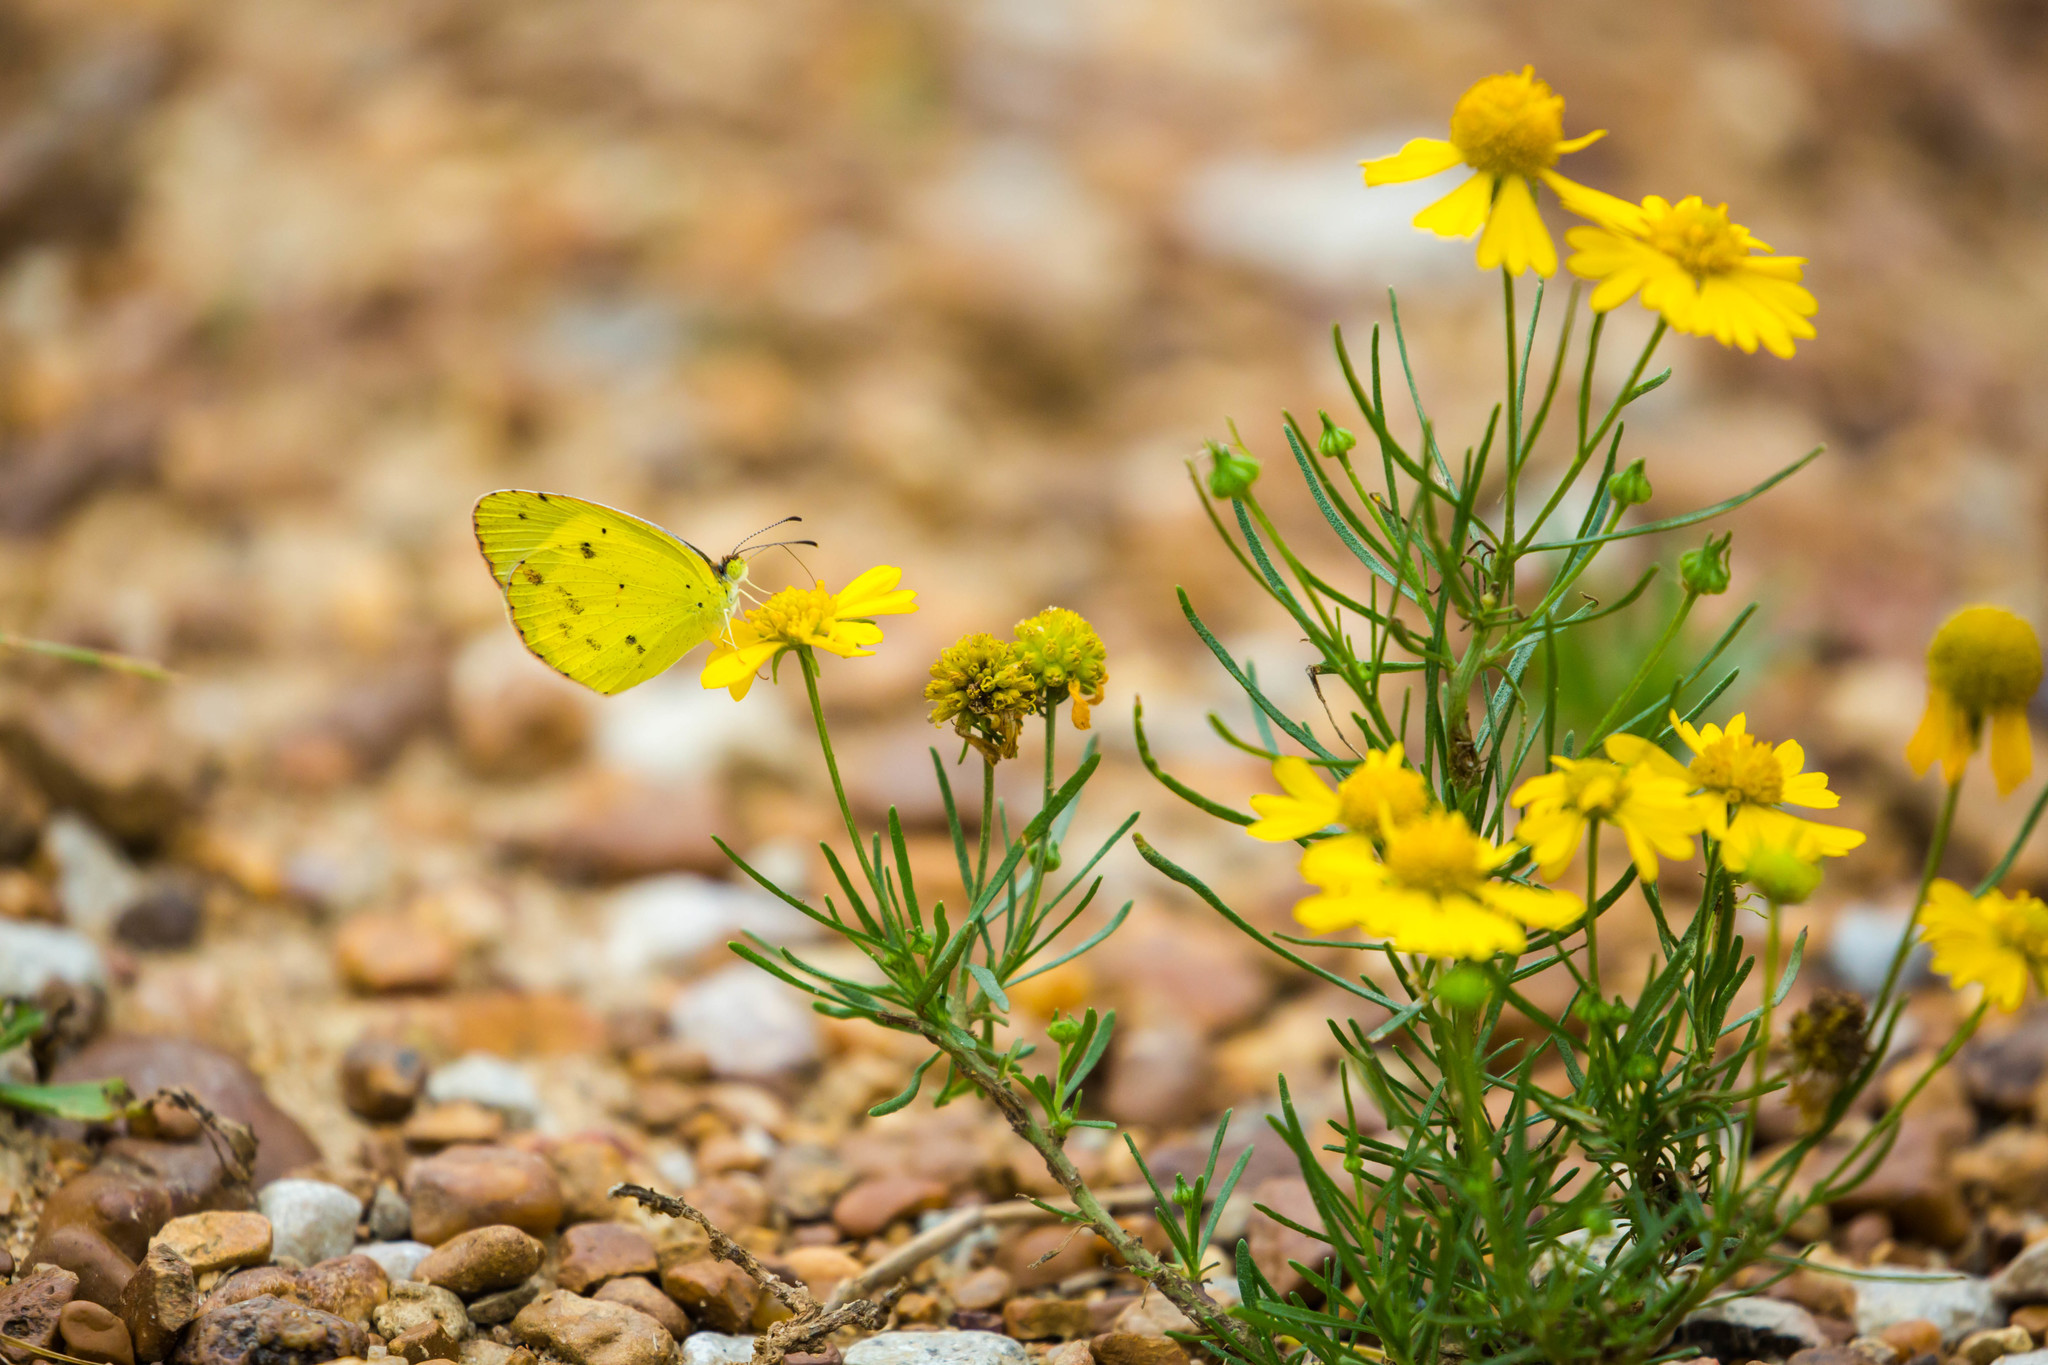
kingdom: Animalia
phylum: Arthropoda
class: Insecta
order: Lepidoptera
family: Pieridae
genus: Pyrisitia
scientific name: Pyrisitia lisa
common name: Little yellow
